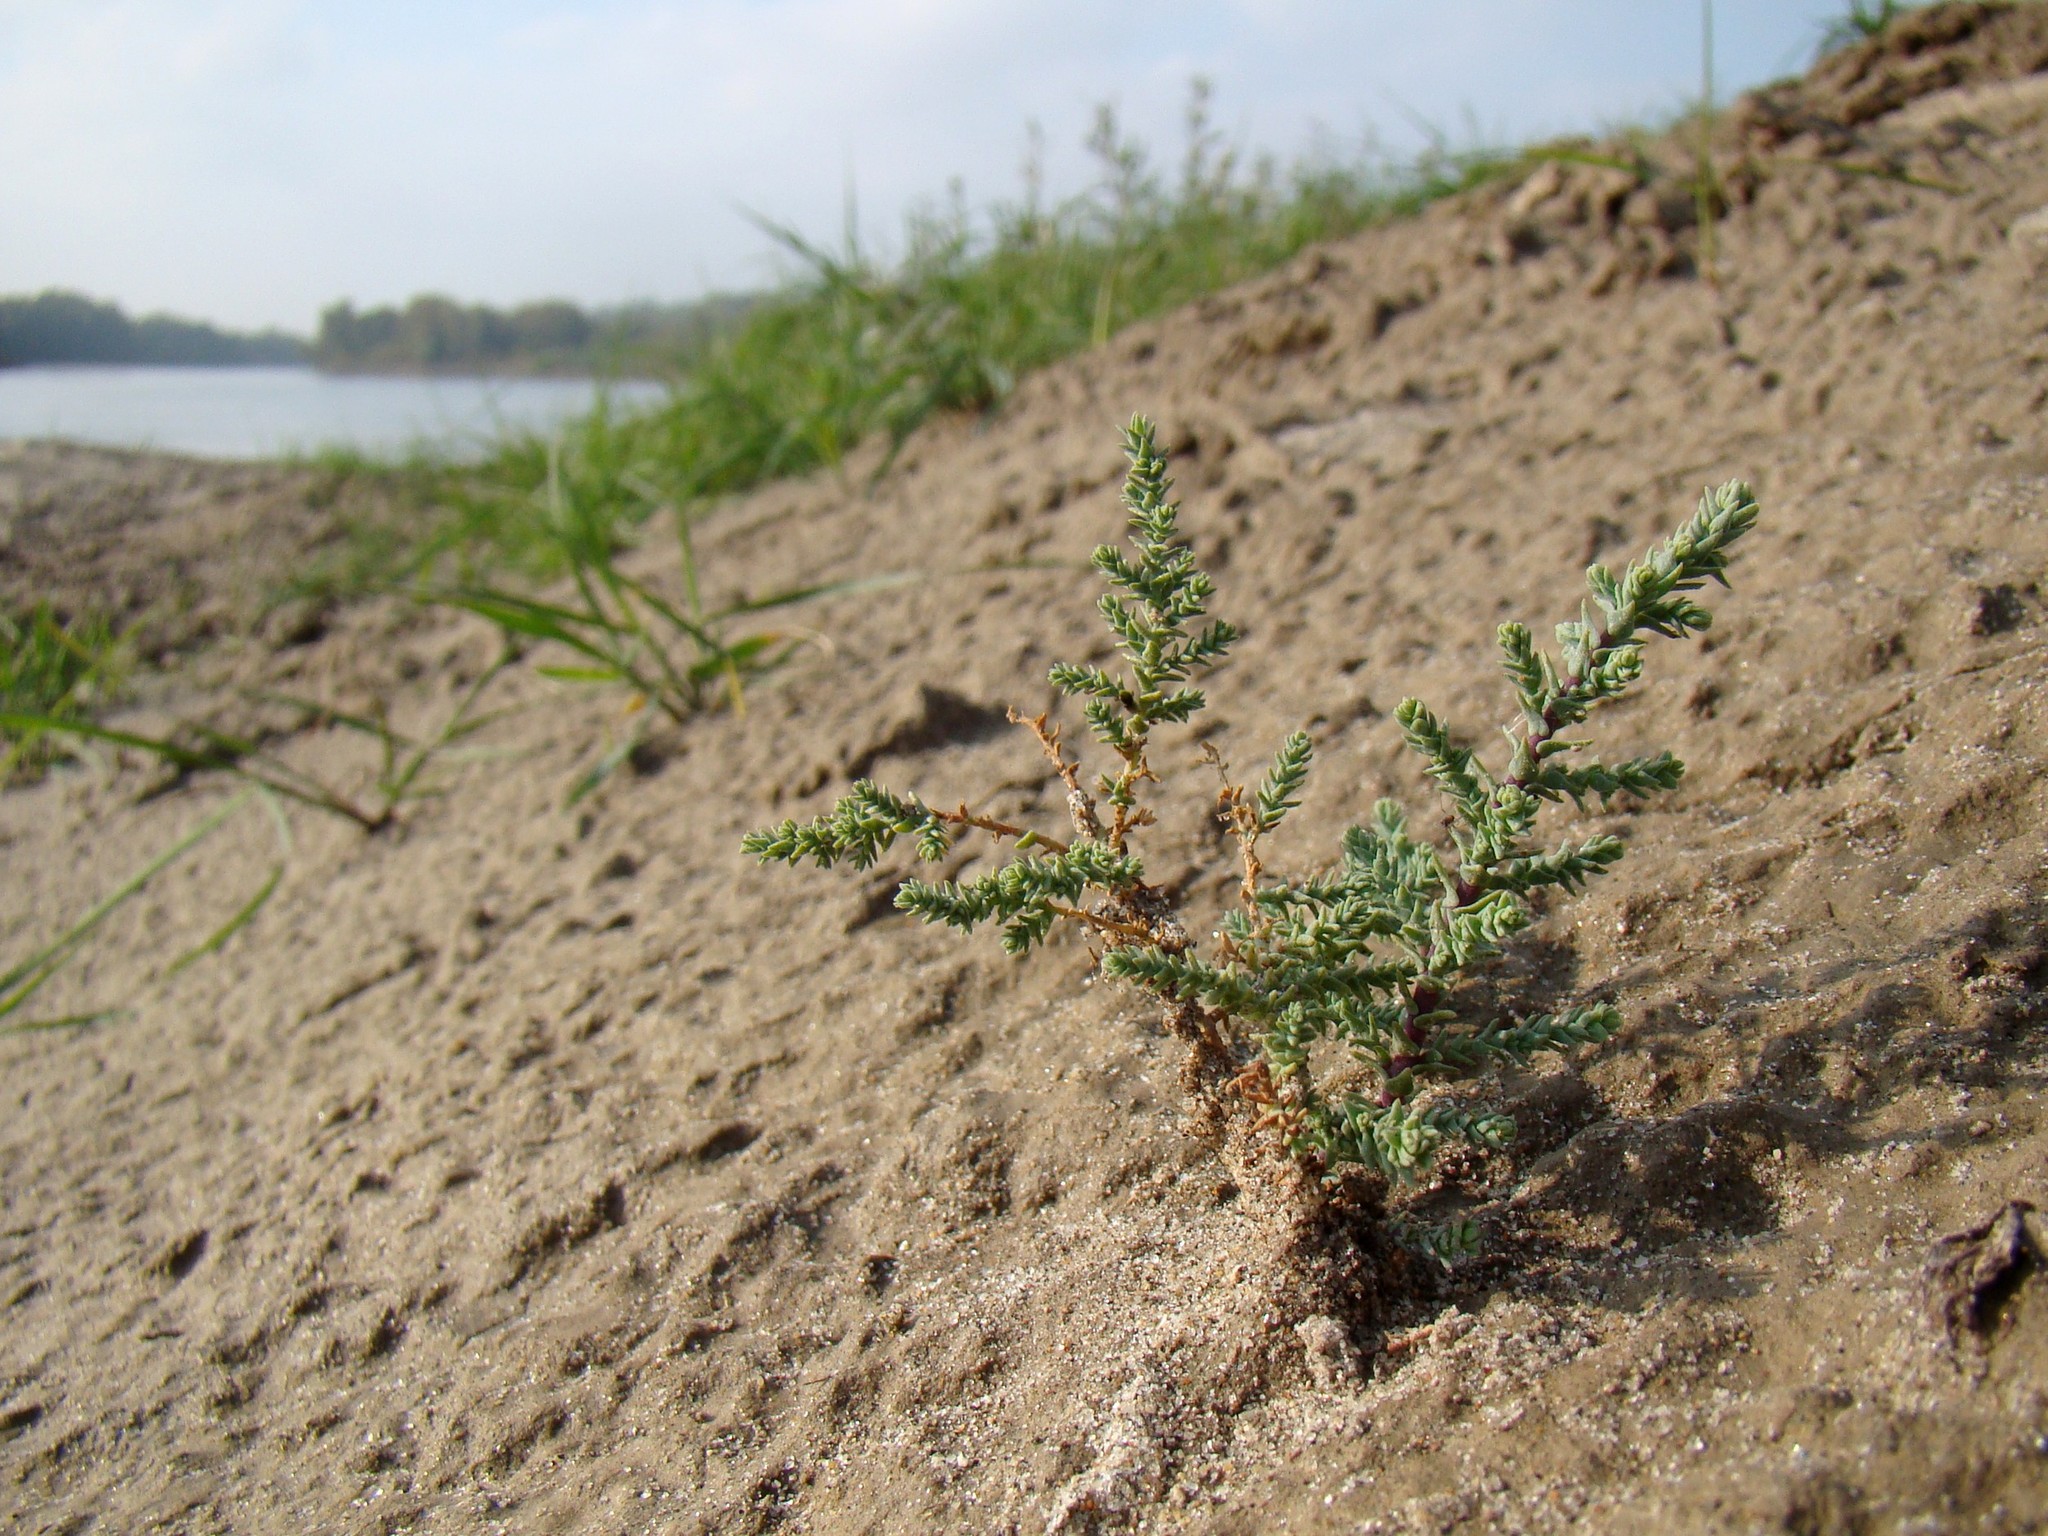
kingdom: Plantae
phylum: Tracheophyta
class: Magnoliopsida
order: Caryophyllales
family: Tamaricaceae
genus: Myricaria
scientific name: Myricaria bracteata
